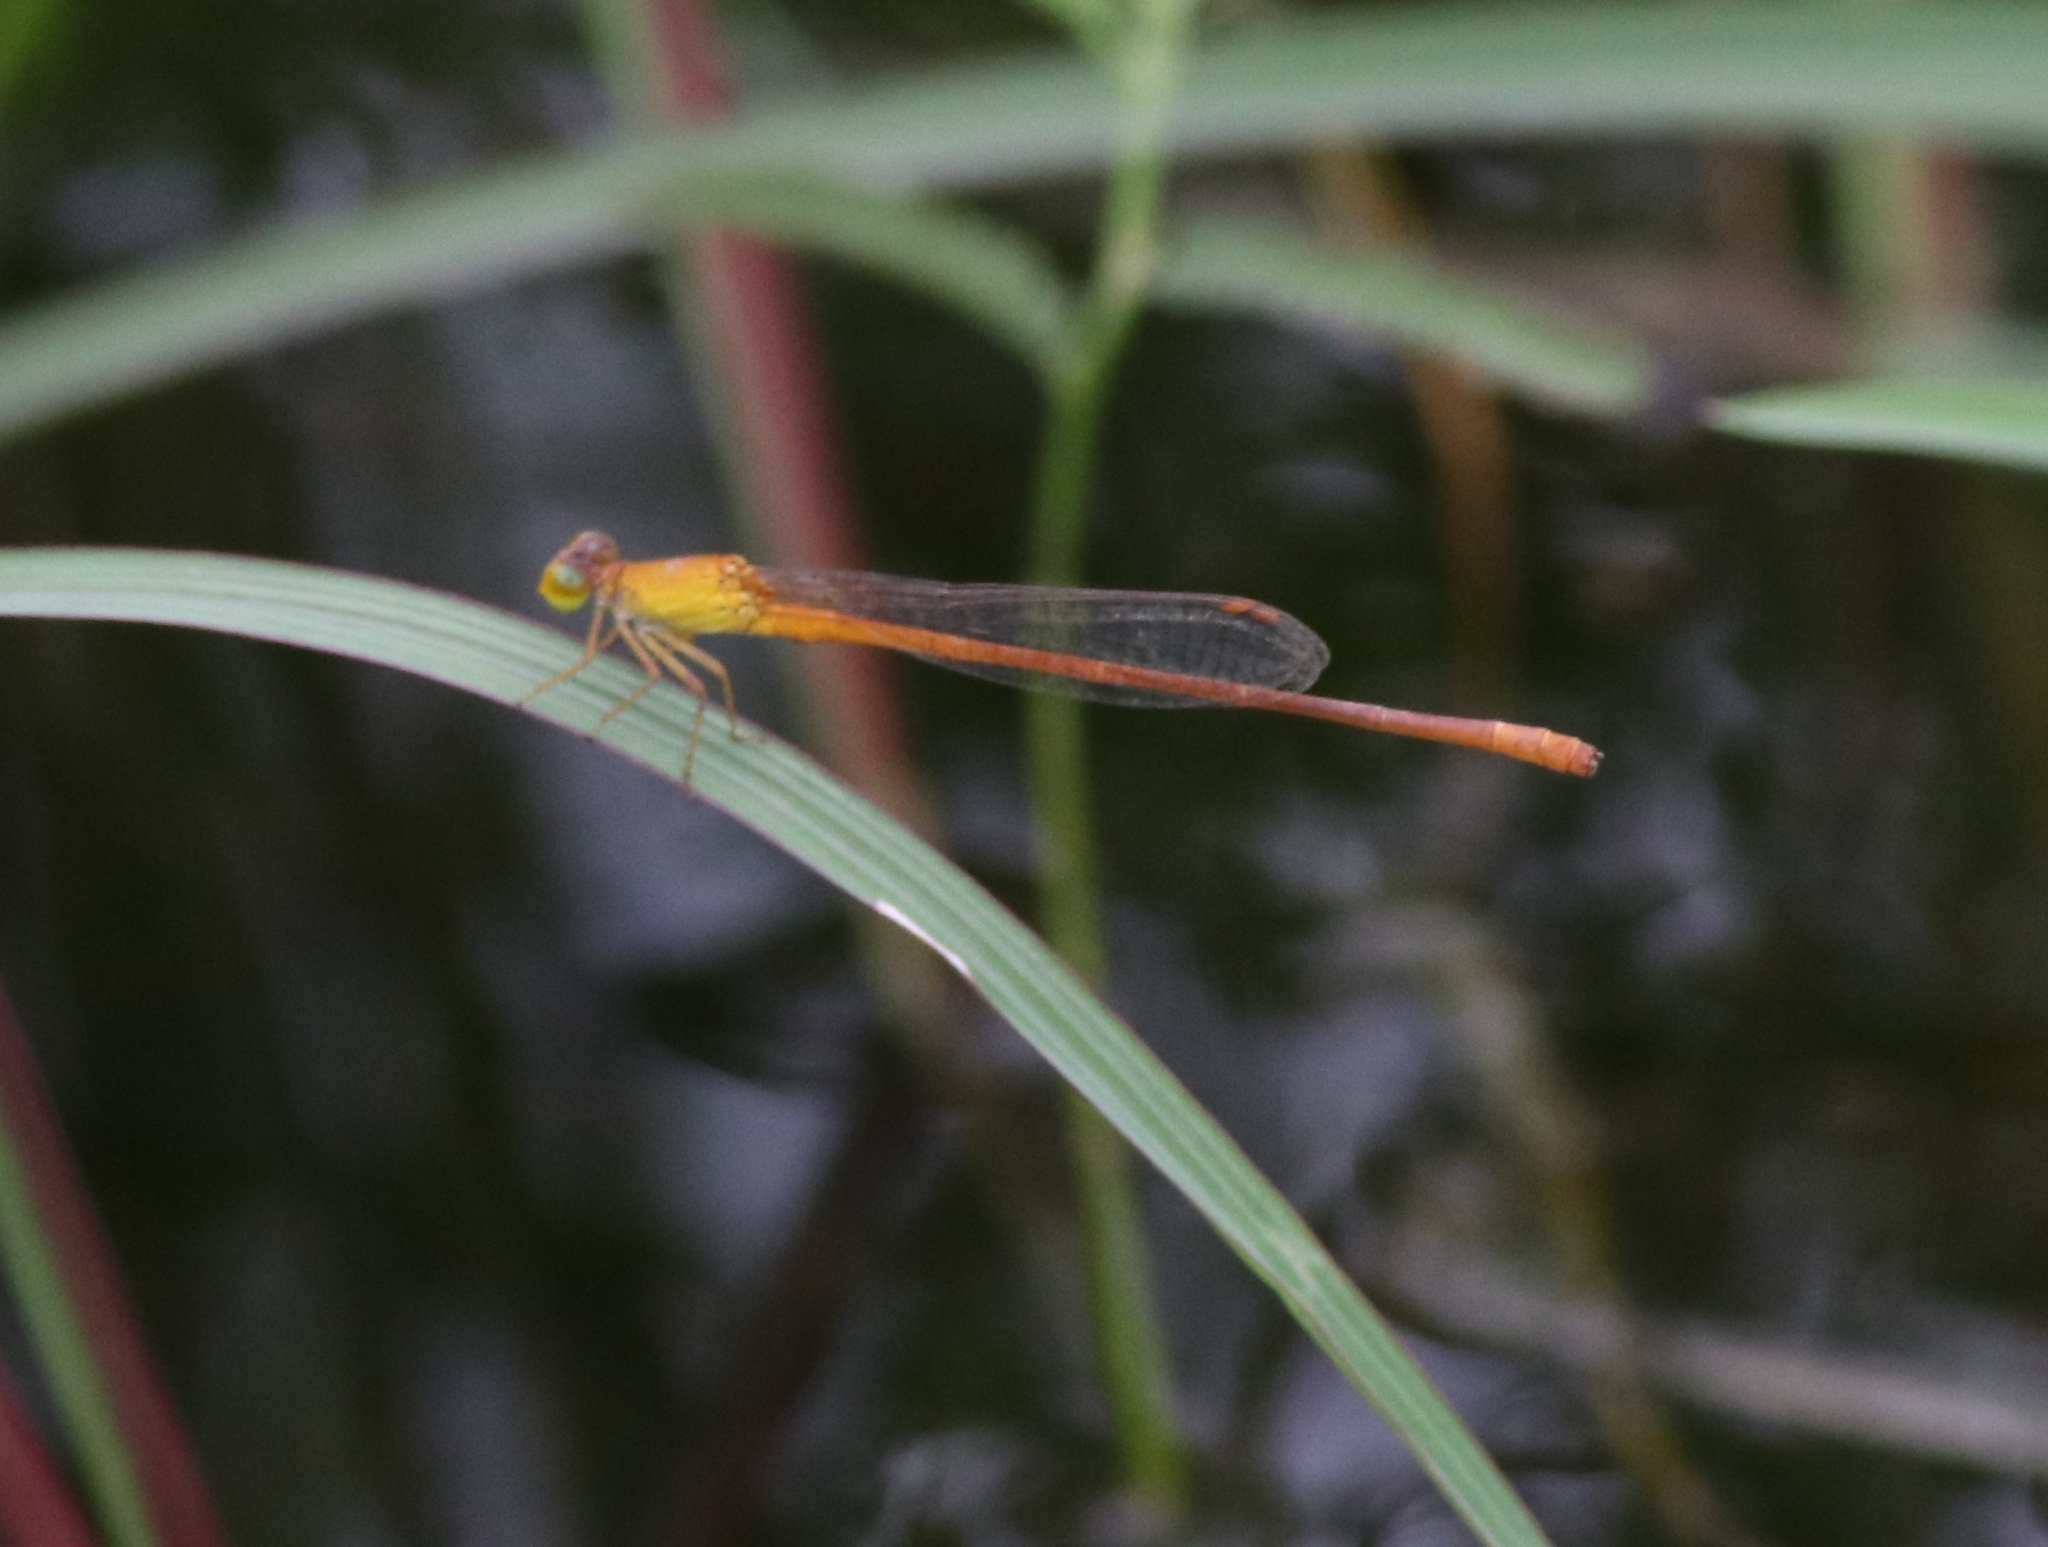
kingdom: Animalia
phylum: Arthropoda
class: Insecta
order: Odonata
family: Coenagrionidae
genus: Ceriagrion
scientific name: Ceriagrion rubiae
